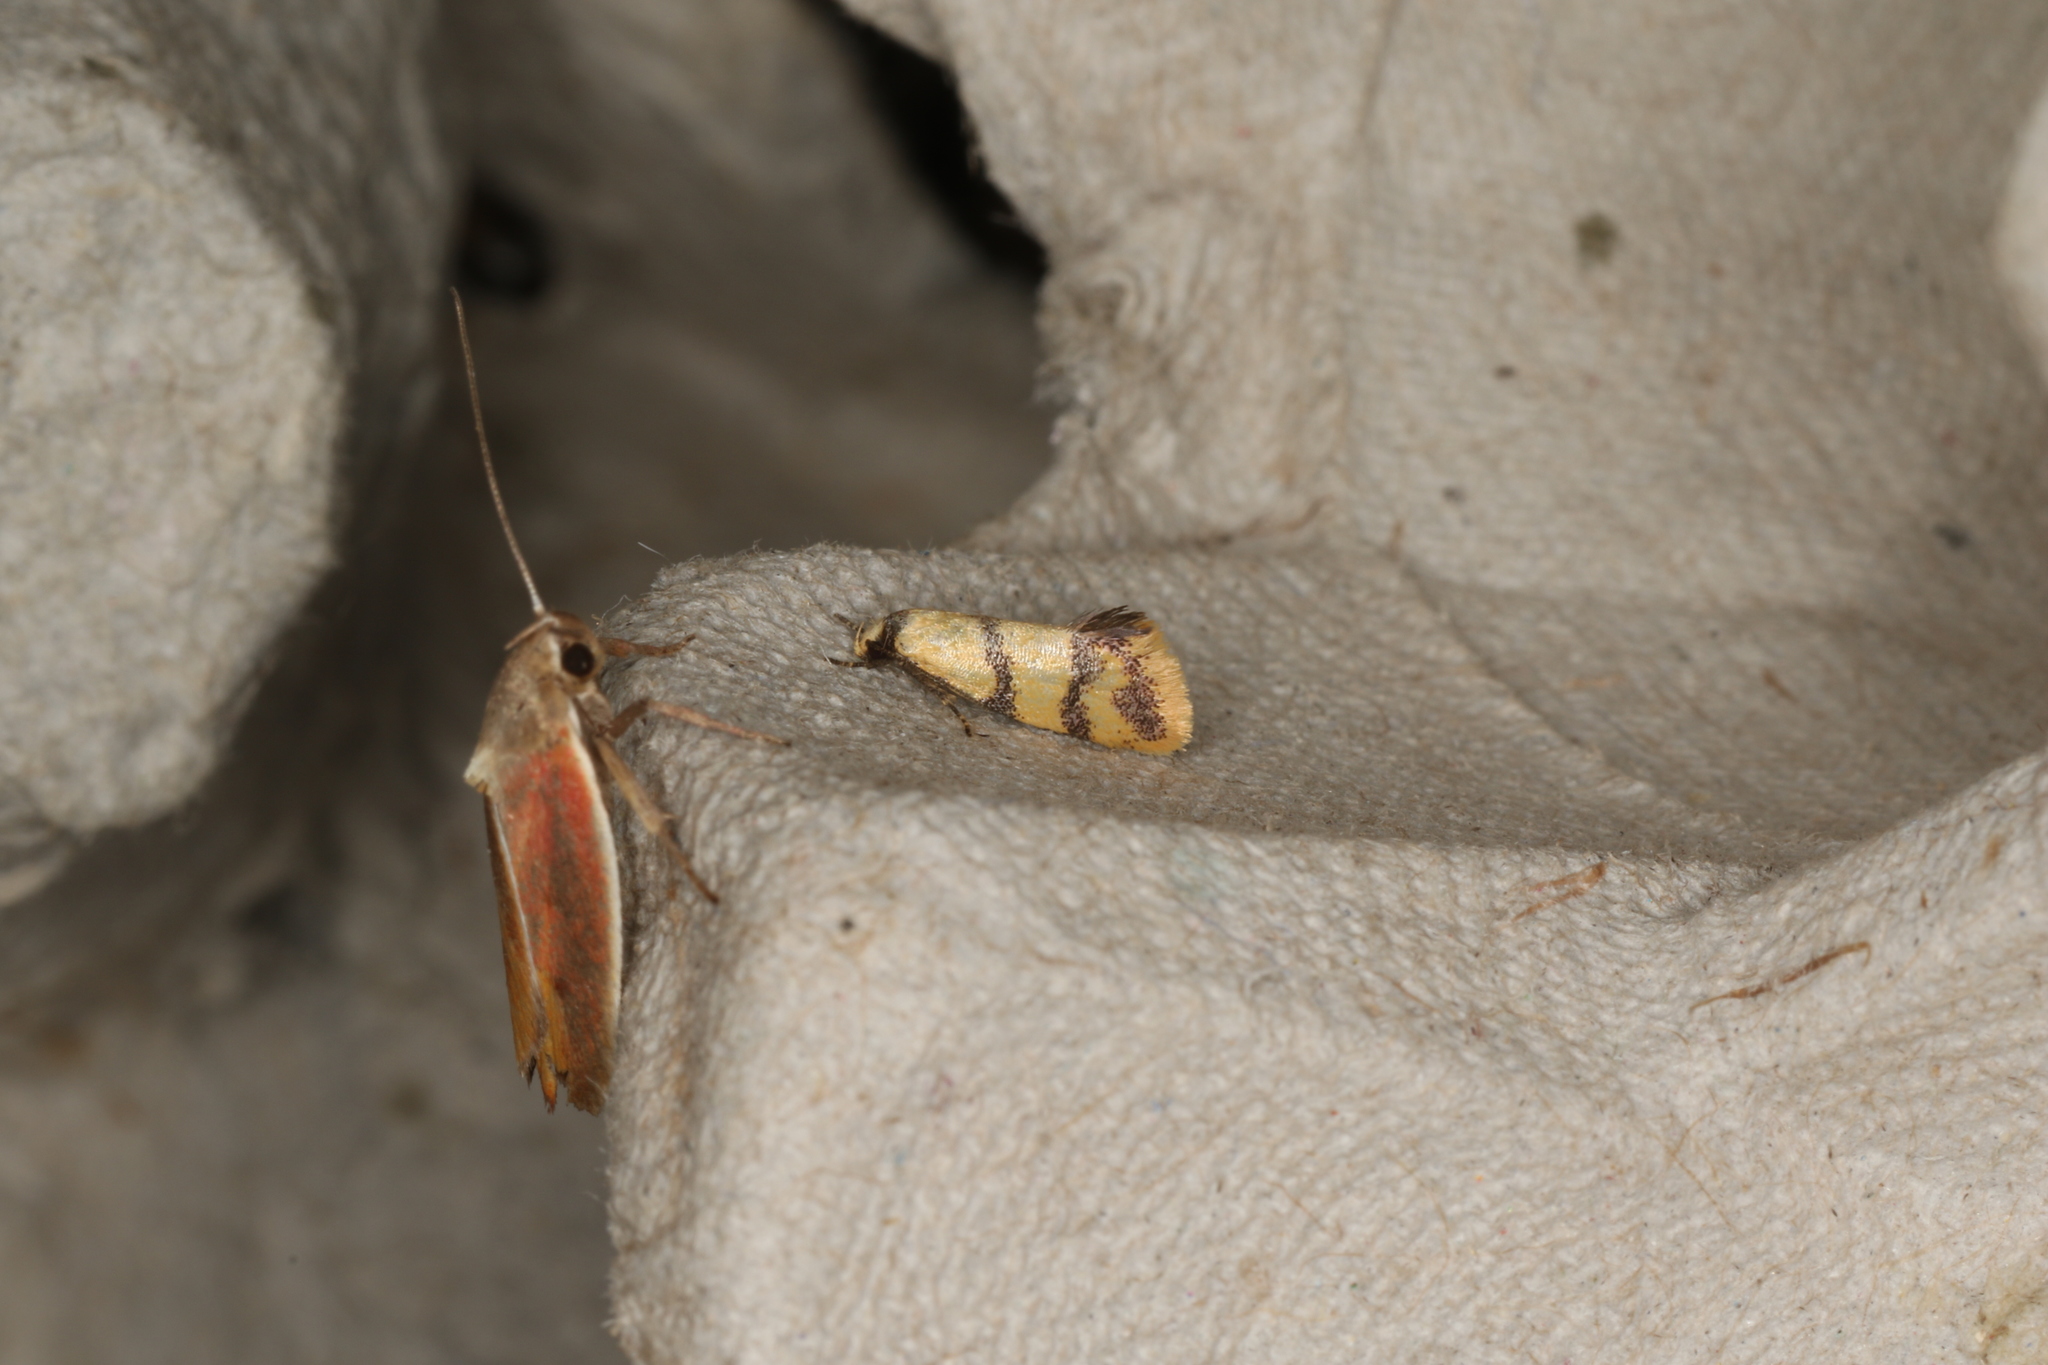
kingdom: Animalia
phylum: Arthropoda
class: Insecta
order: Lepidoptera
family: Oecophoridae
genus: Psaroxantha
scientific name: Psaroxantha basilica
